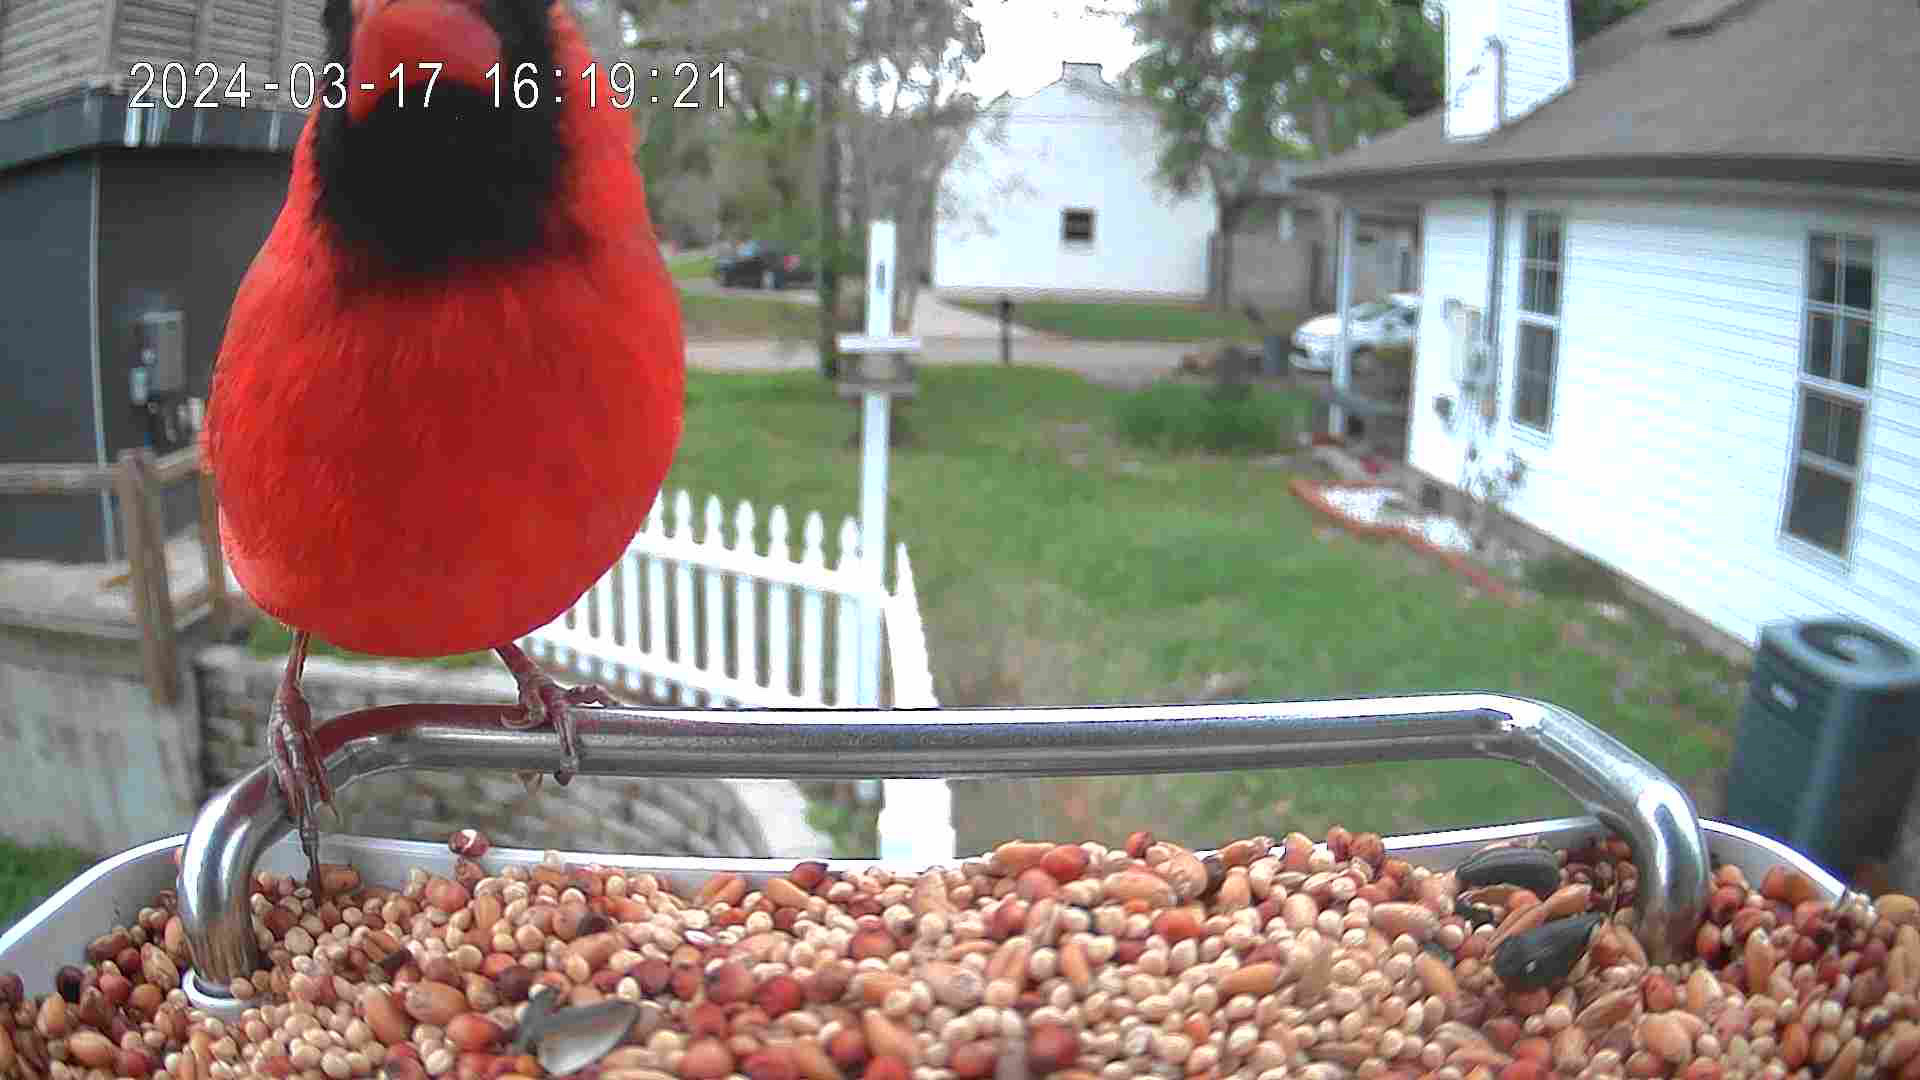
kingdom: Animalia
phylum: Chordata
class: Aves
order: Passeriformes
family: Cardinalidae
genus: Cardinalis
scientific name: Cardinalis cardinalis
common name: Northern cardinal
